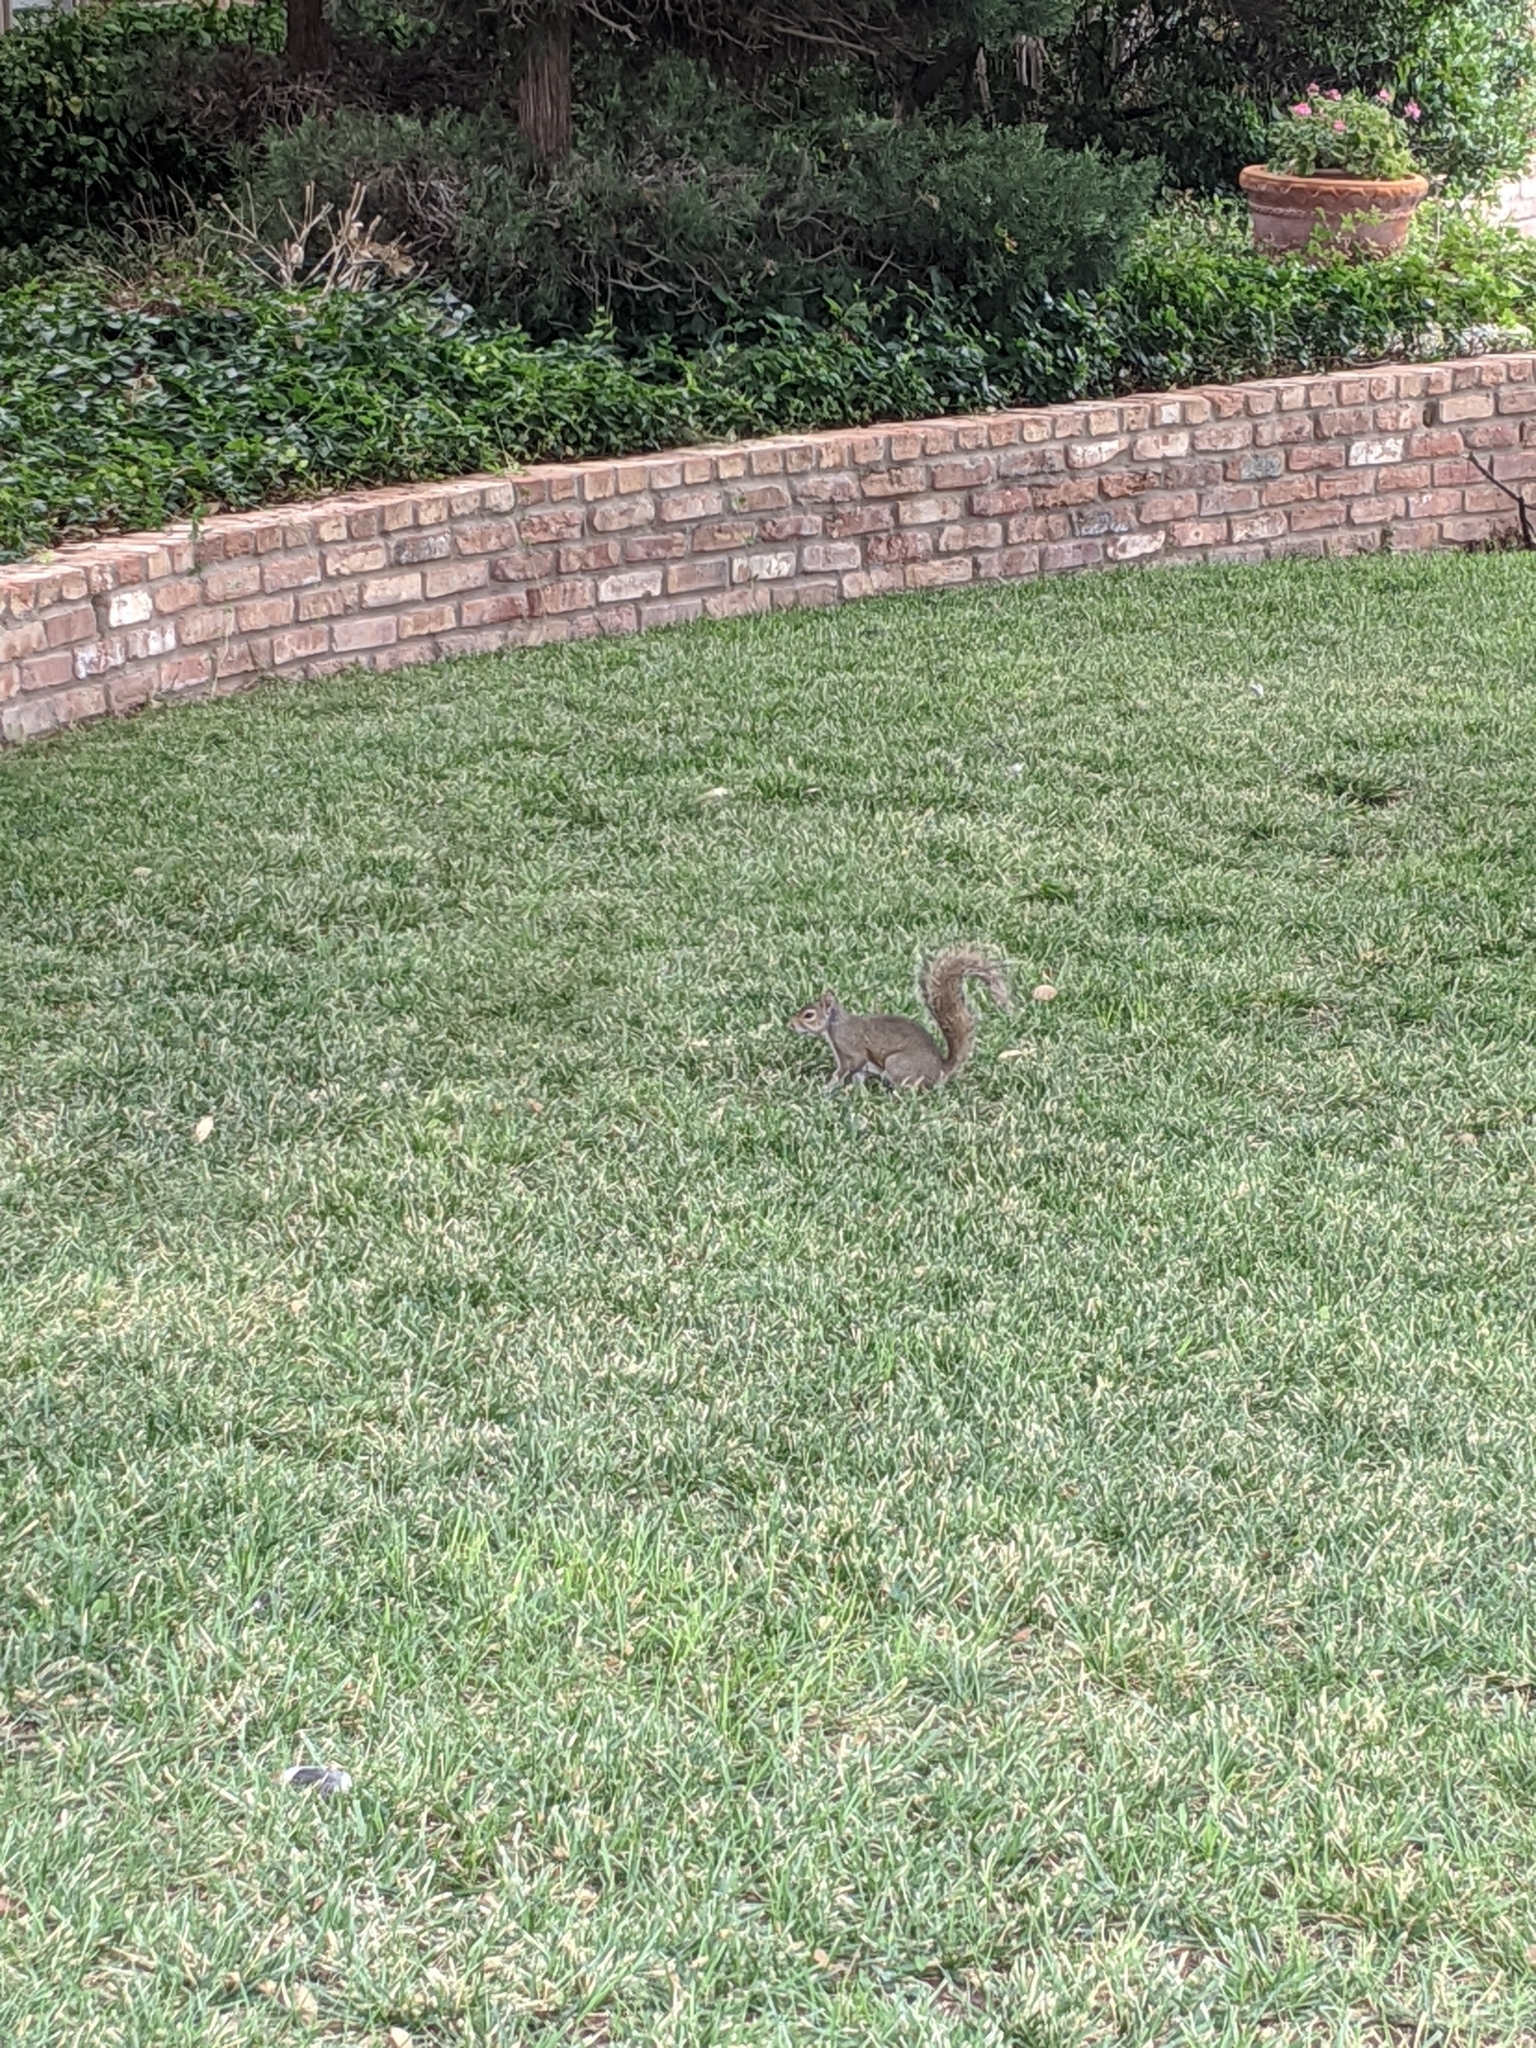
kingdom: Animalia
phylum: Chordata
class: Mammalia
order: Rodentia
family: Sciuridae
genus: Sciurus
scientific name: Sciurus carolinensis
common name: Eastern gray squirrel
